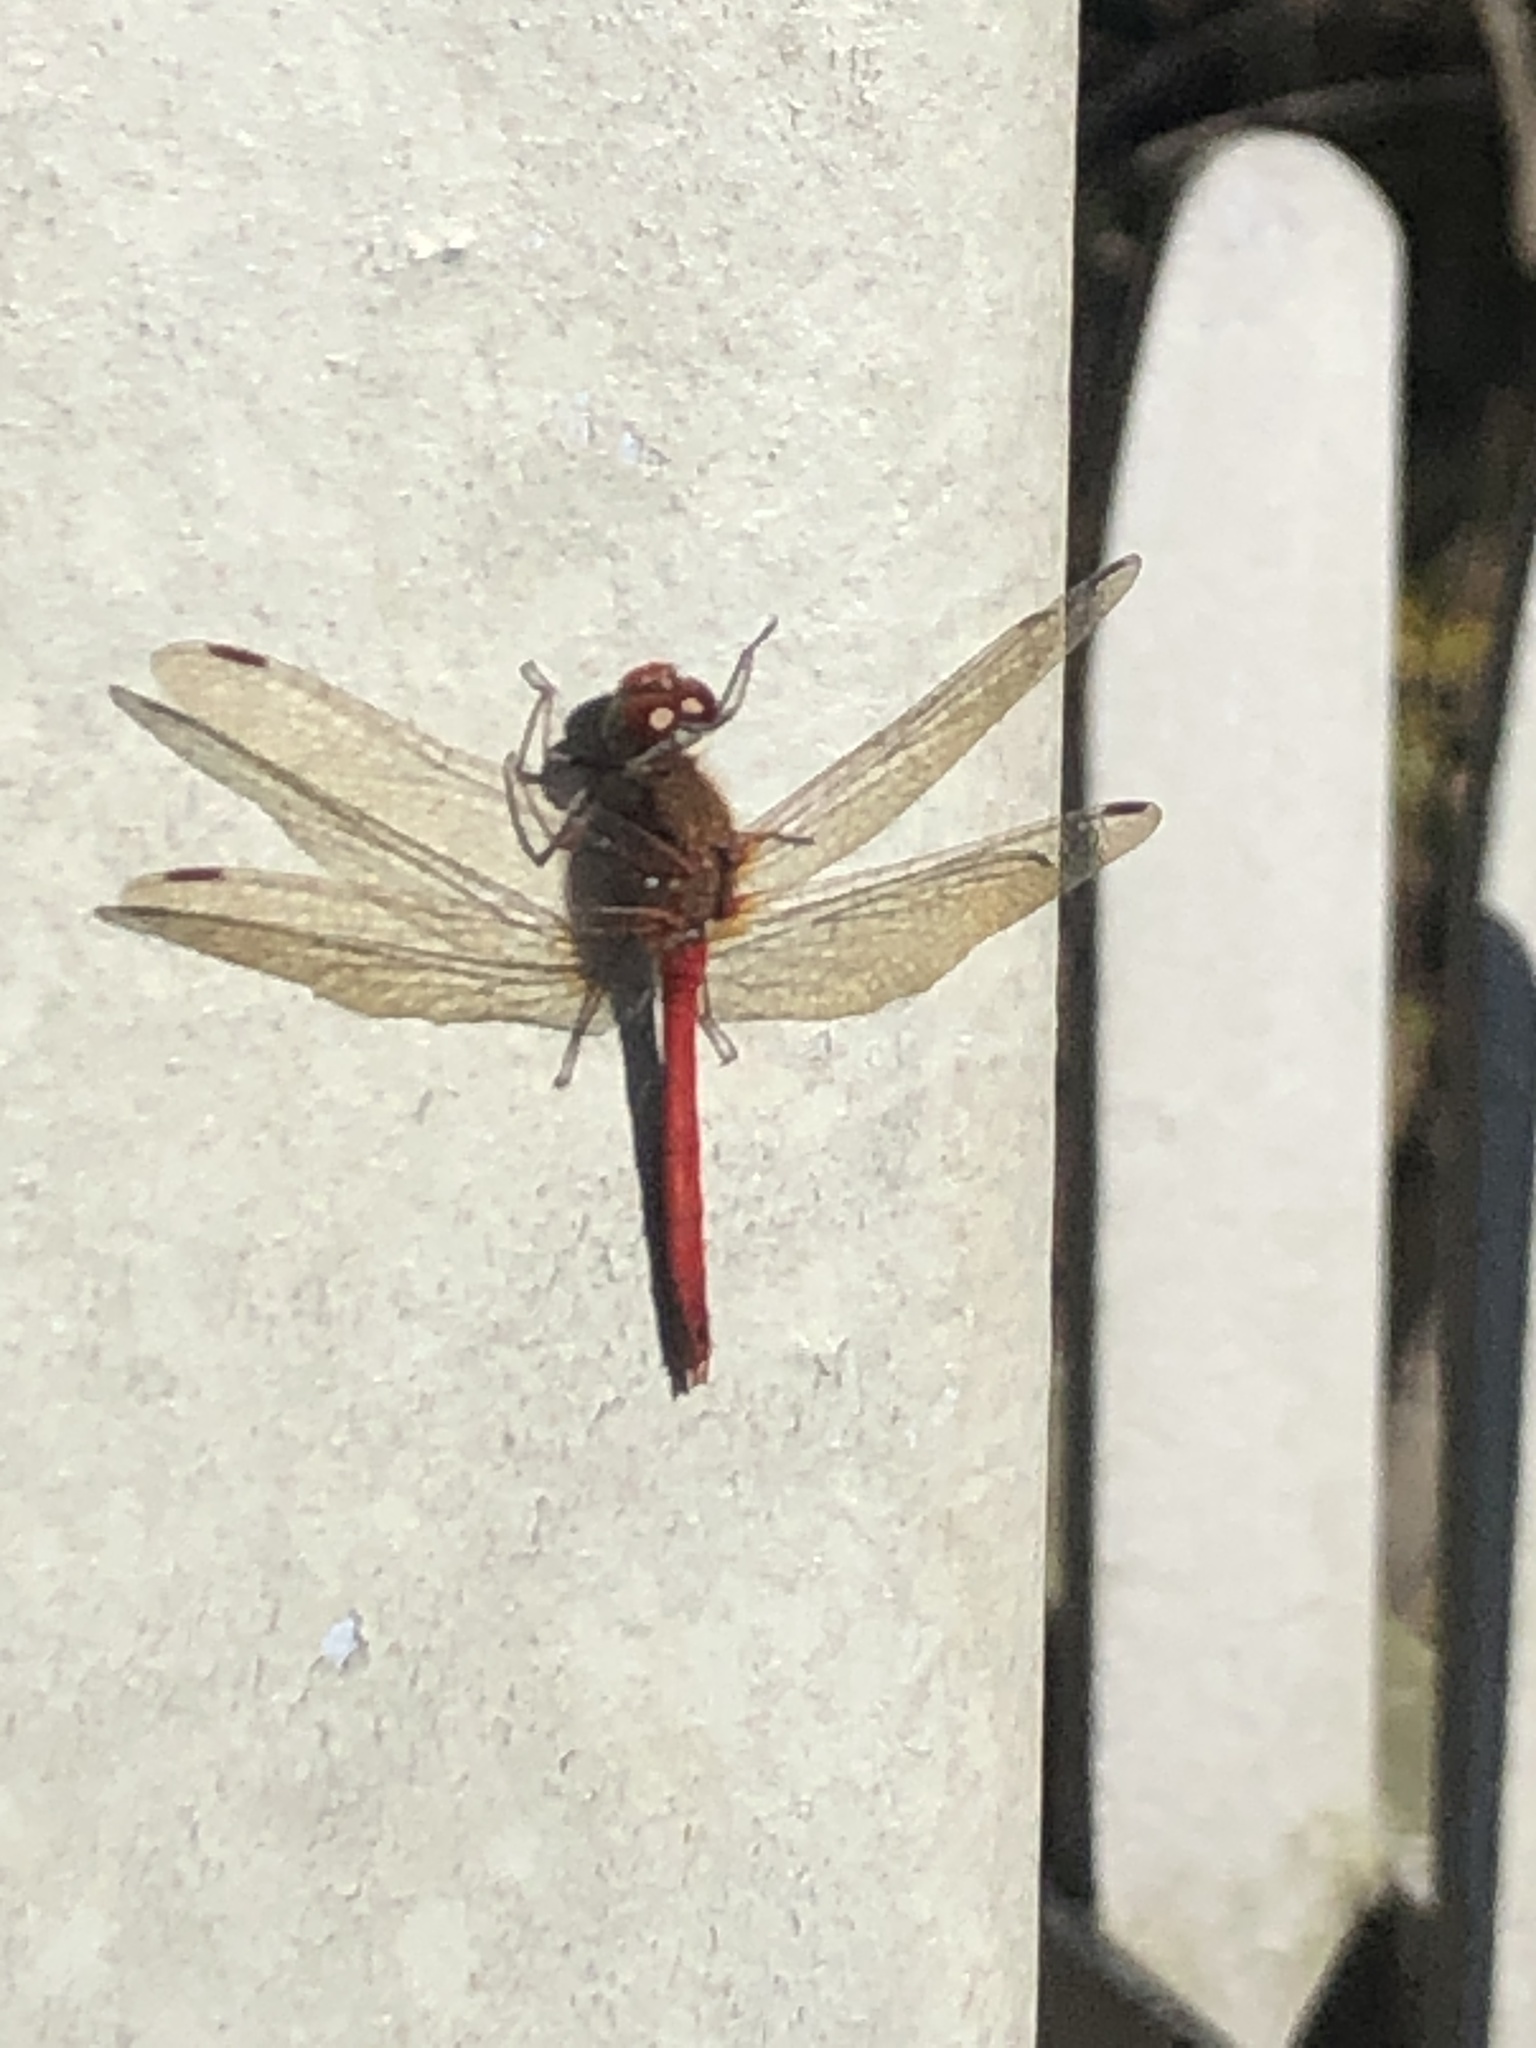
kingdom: Animalia
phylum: Arthropoda
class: Insecta
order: Odonata
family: Libellulidae
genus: Sympetrum
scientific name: Sympetrum vicinum
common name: Autumn meadowhawk
